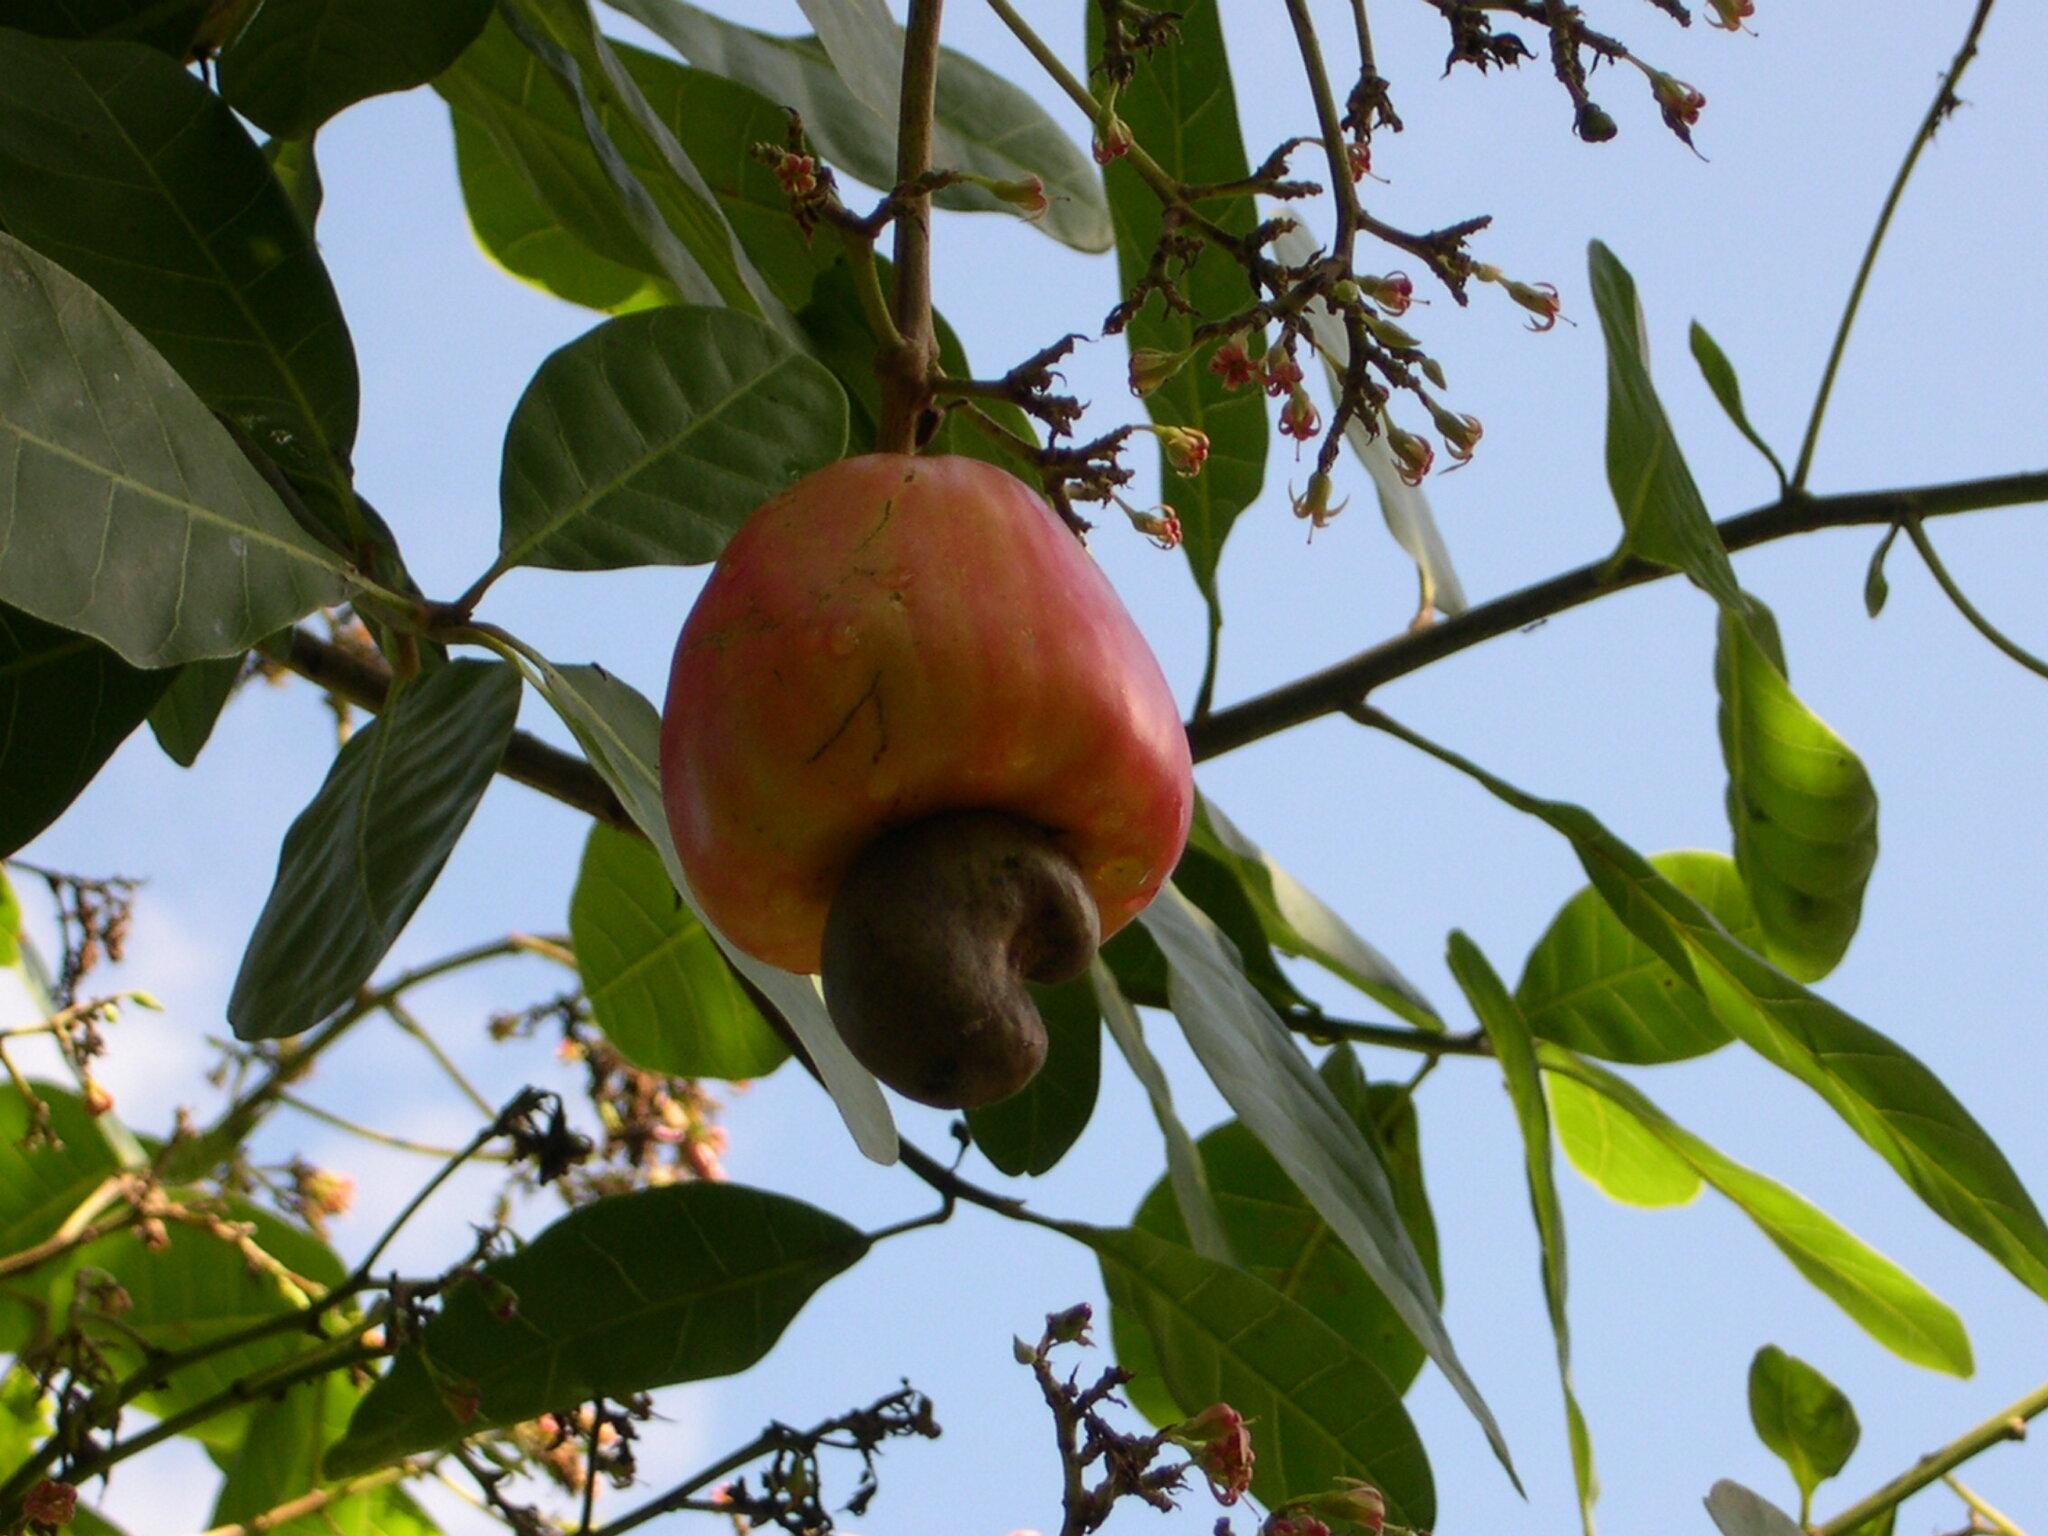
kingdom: Plantae
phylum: Tracheophyta
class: Magnoliopsida
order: Sapindales
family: Anacardiaceae
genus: Anacardium
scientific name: Anacardium occidentale
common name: Cashew
